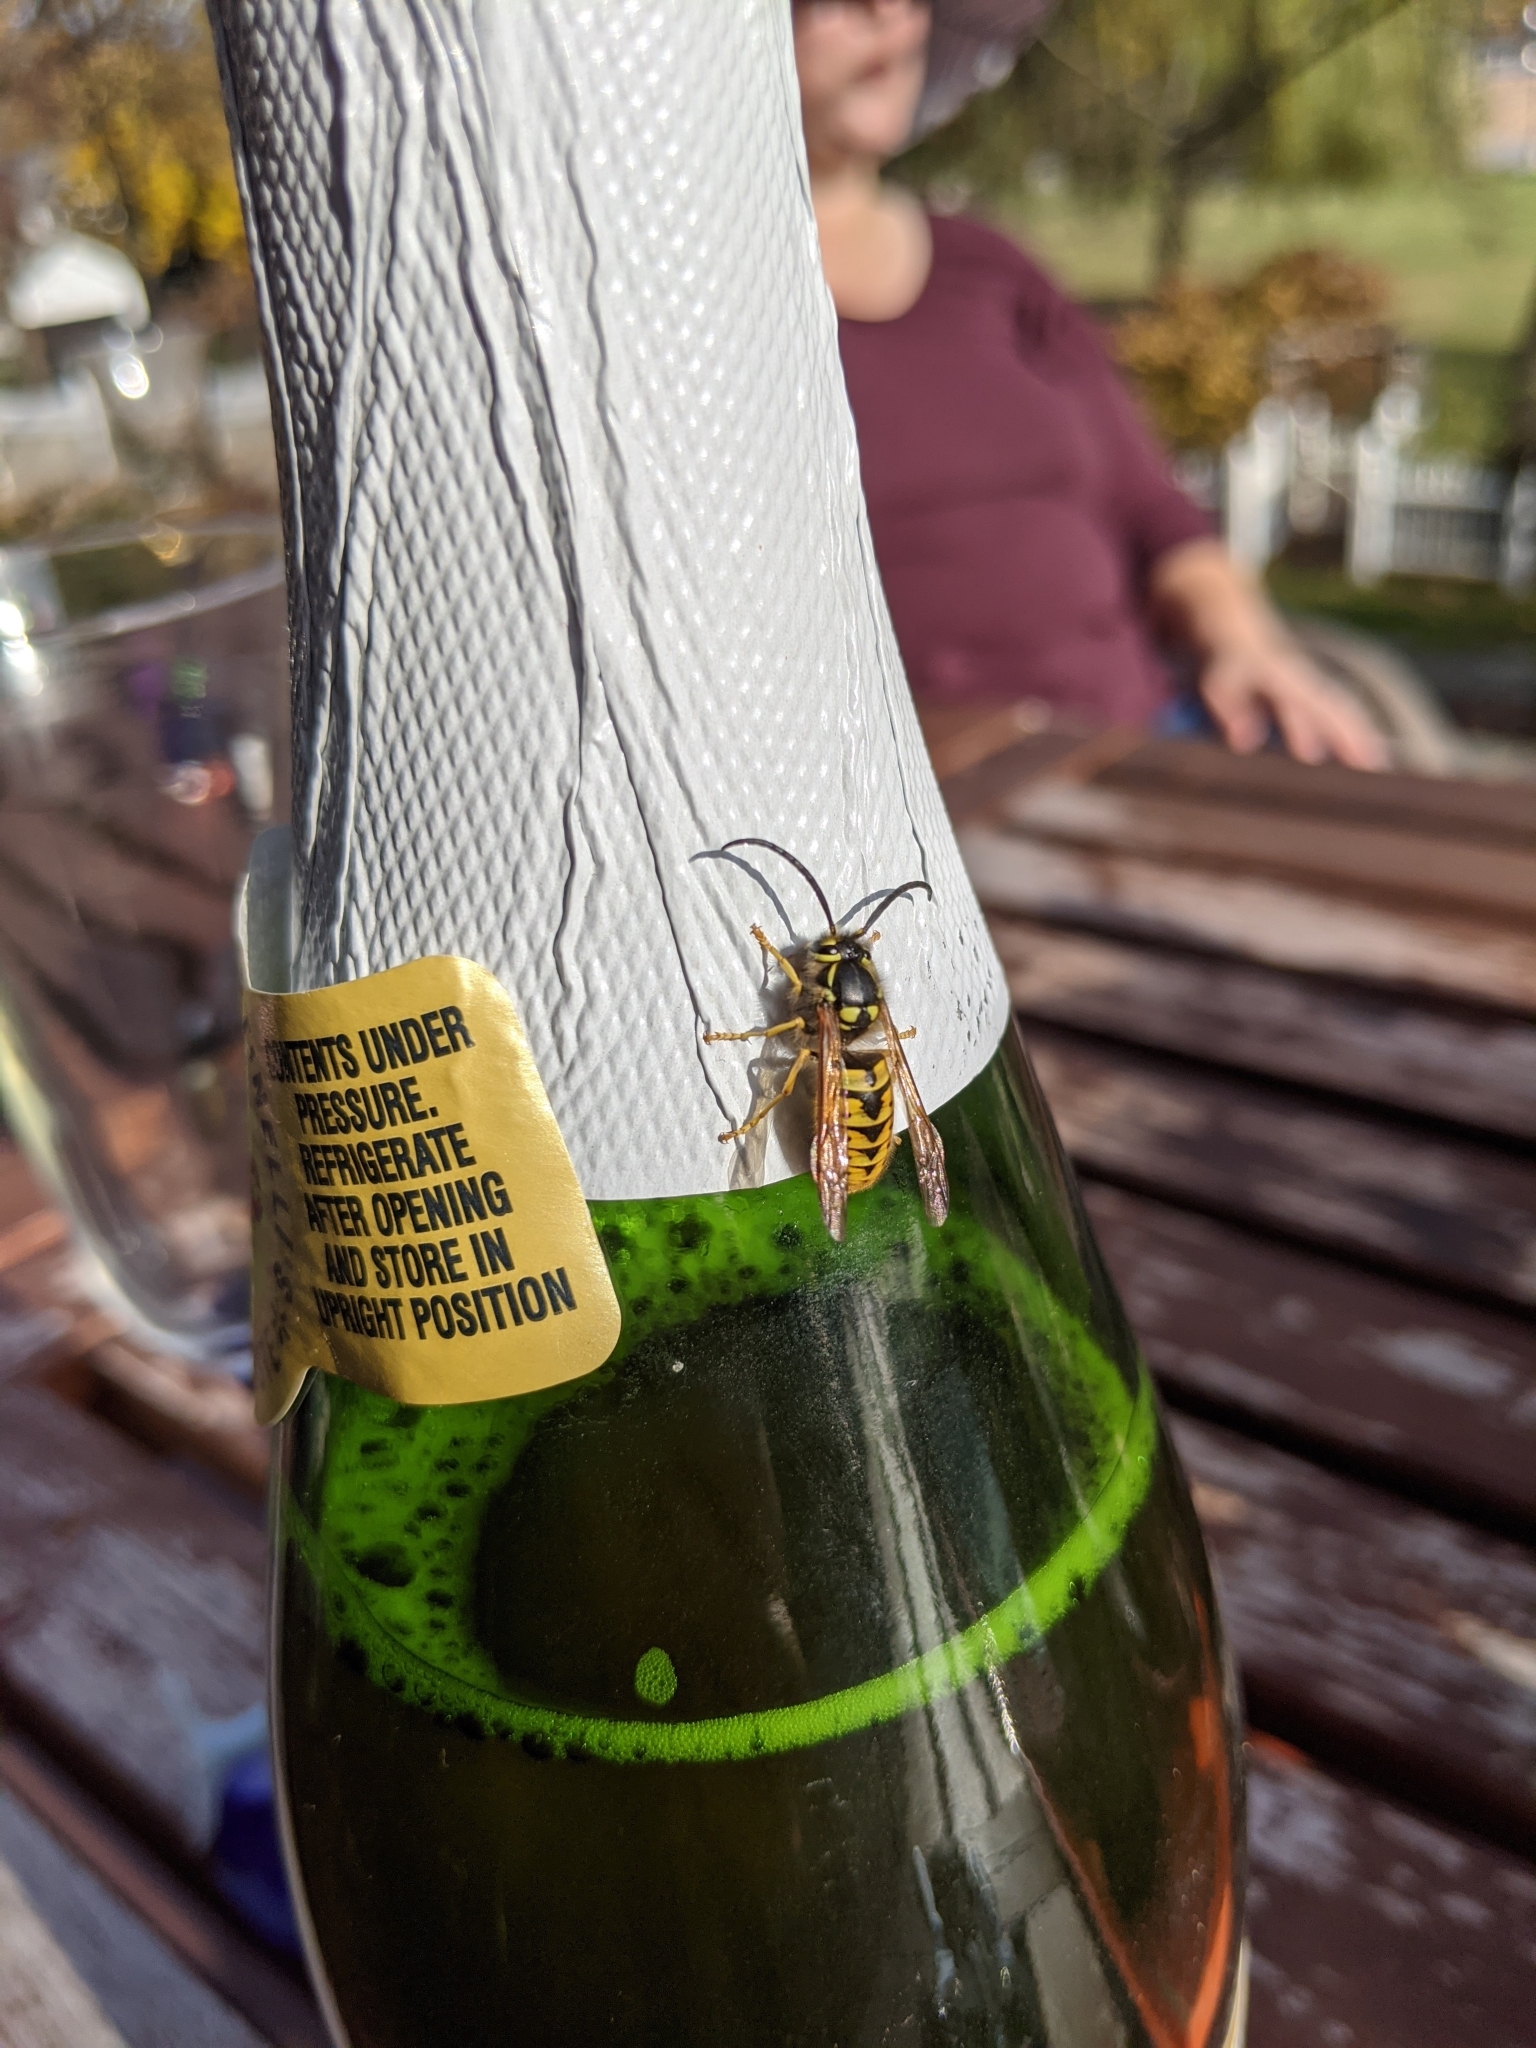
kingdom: Animalia
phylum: Arthropoda
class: Insecta
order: Hymenoptera
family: Vespidae
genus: Vespula
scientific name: Vespula germanica
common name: German wasp
